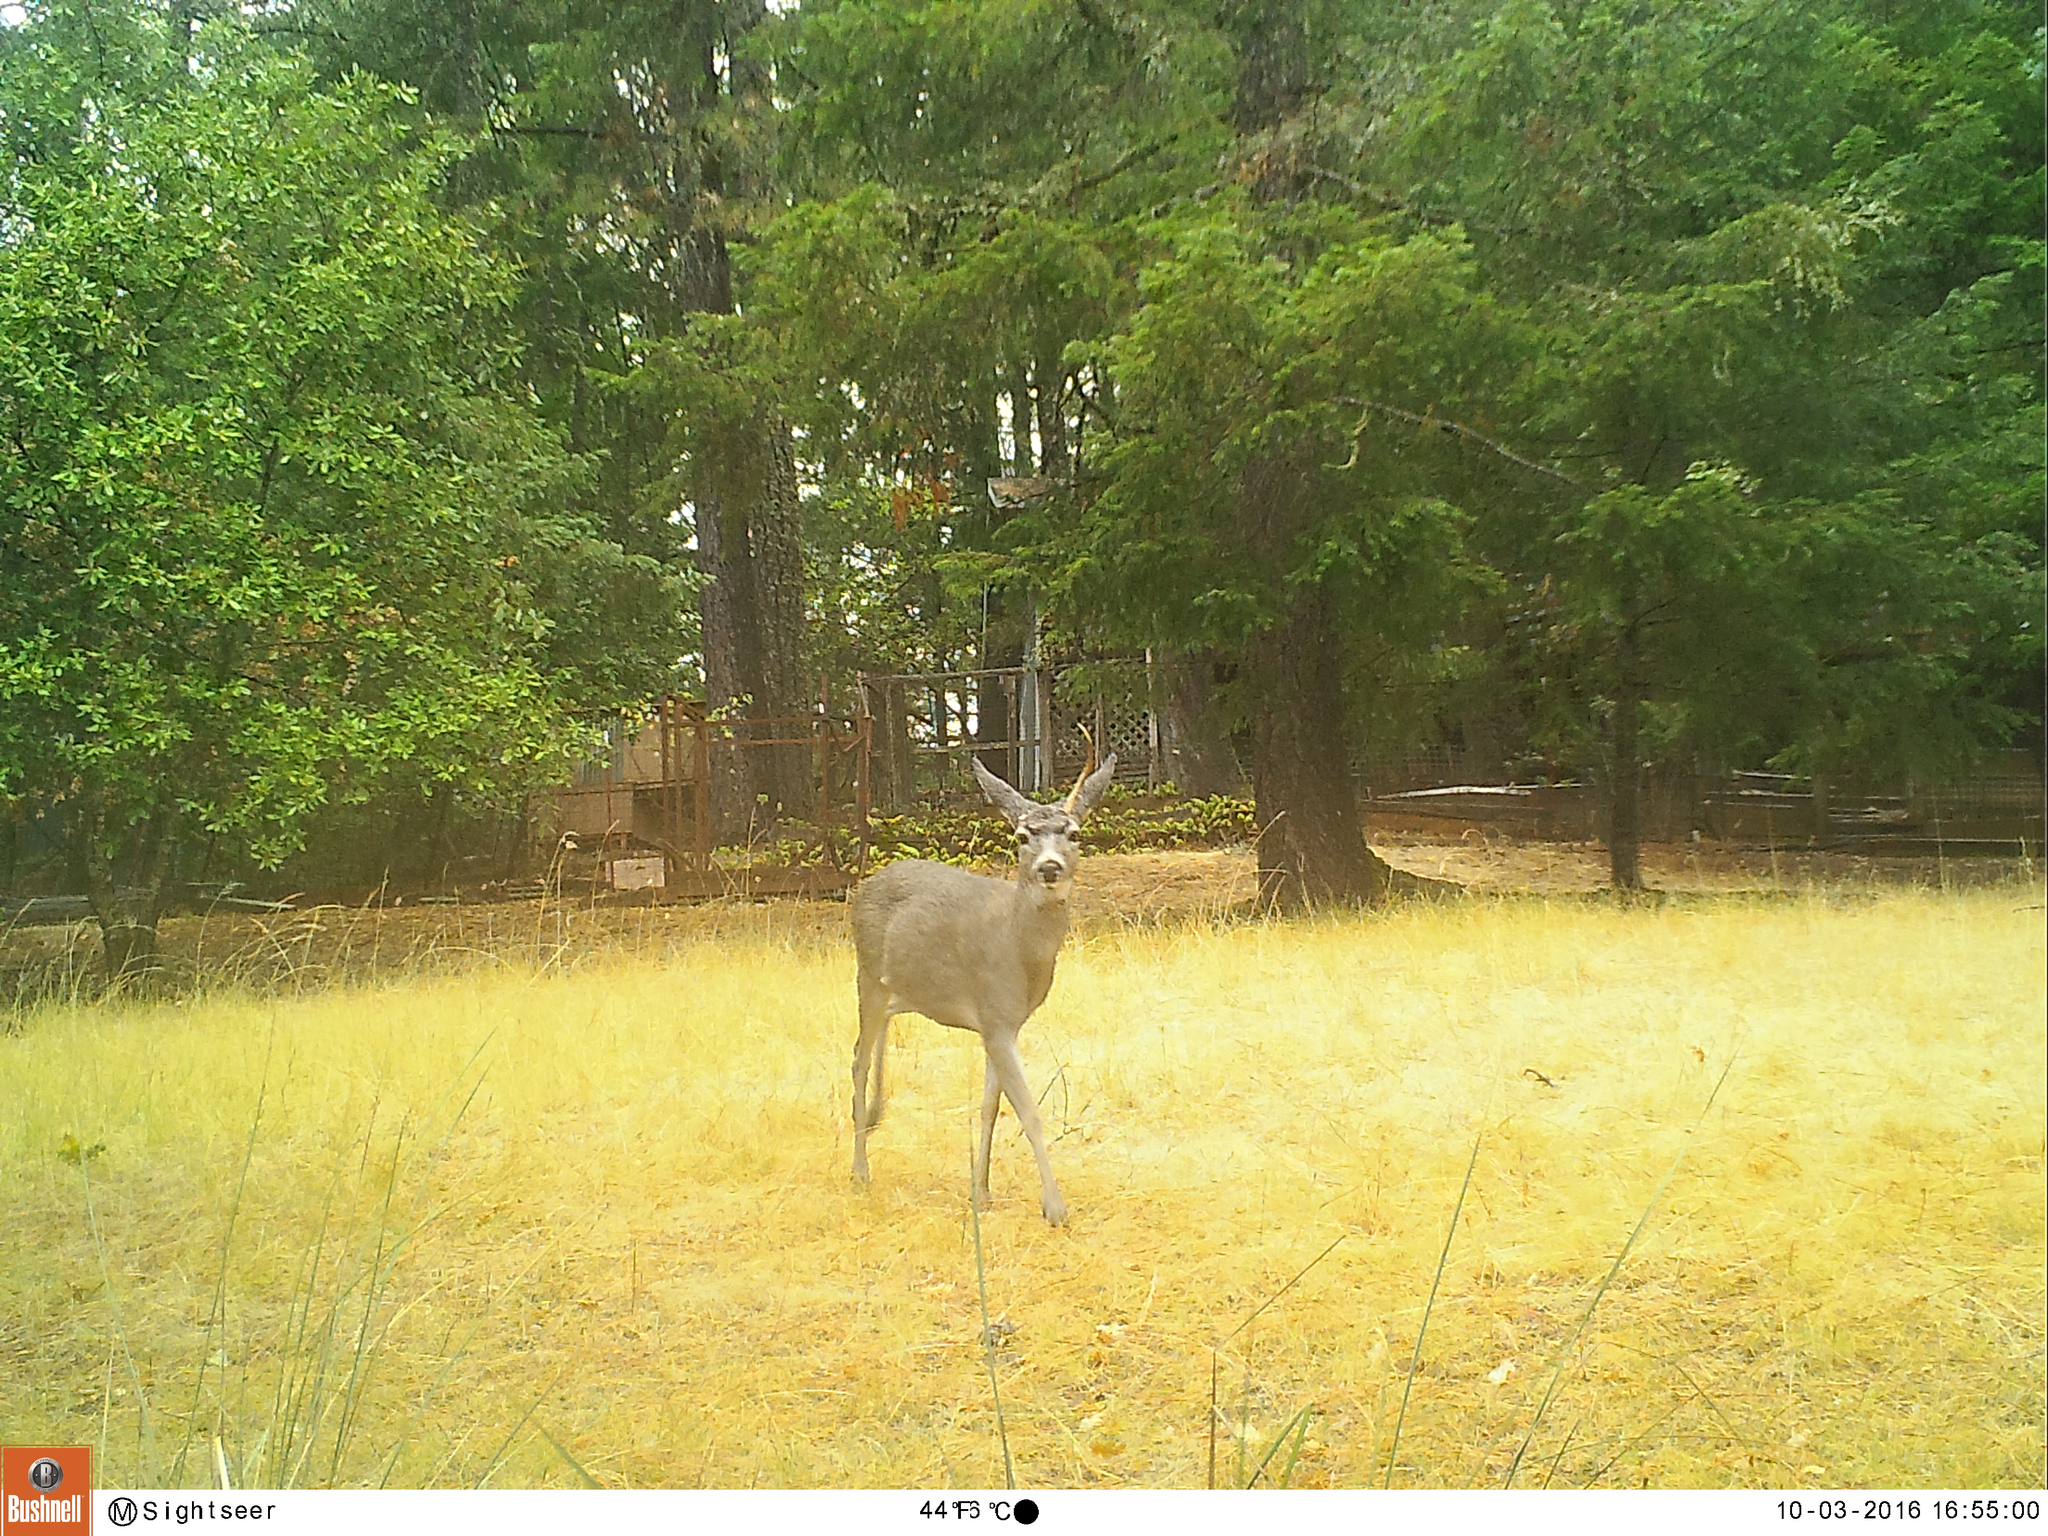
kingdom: Animalia
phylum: Chordata
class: Mammalia
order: Artiodactyla
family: Cervidae
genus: Odocoileus
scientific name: Odocoileus hemionus
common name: Mule deer
